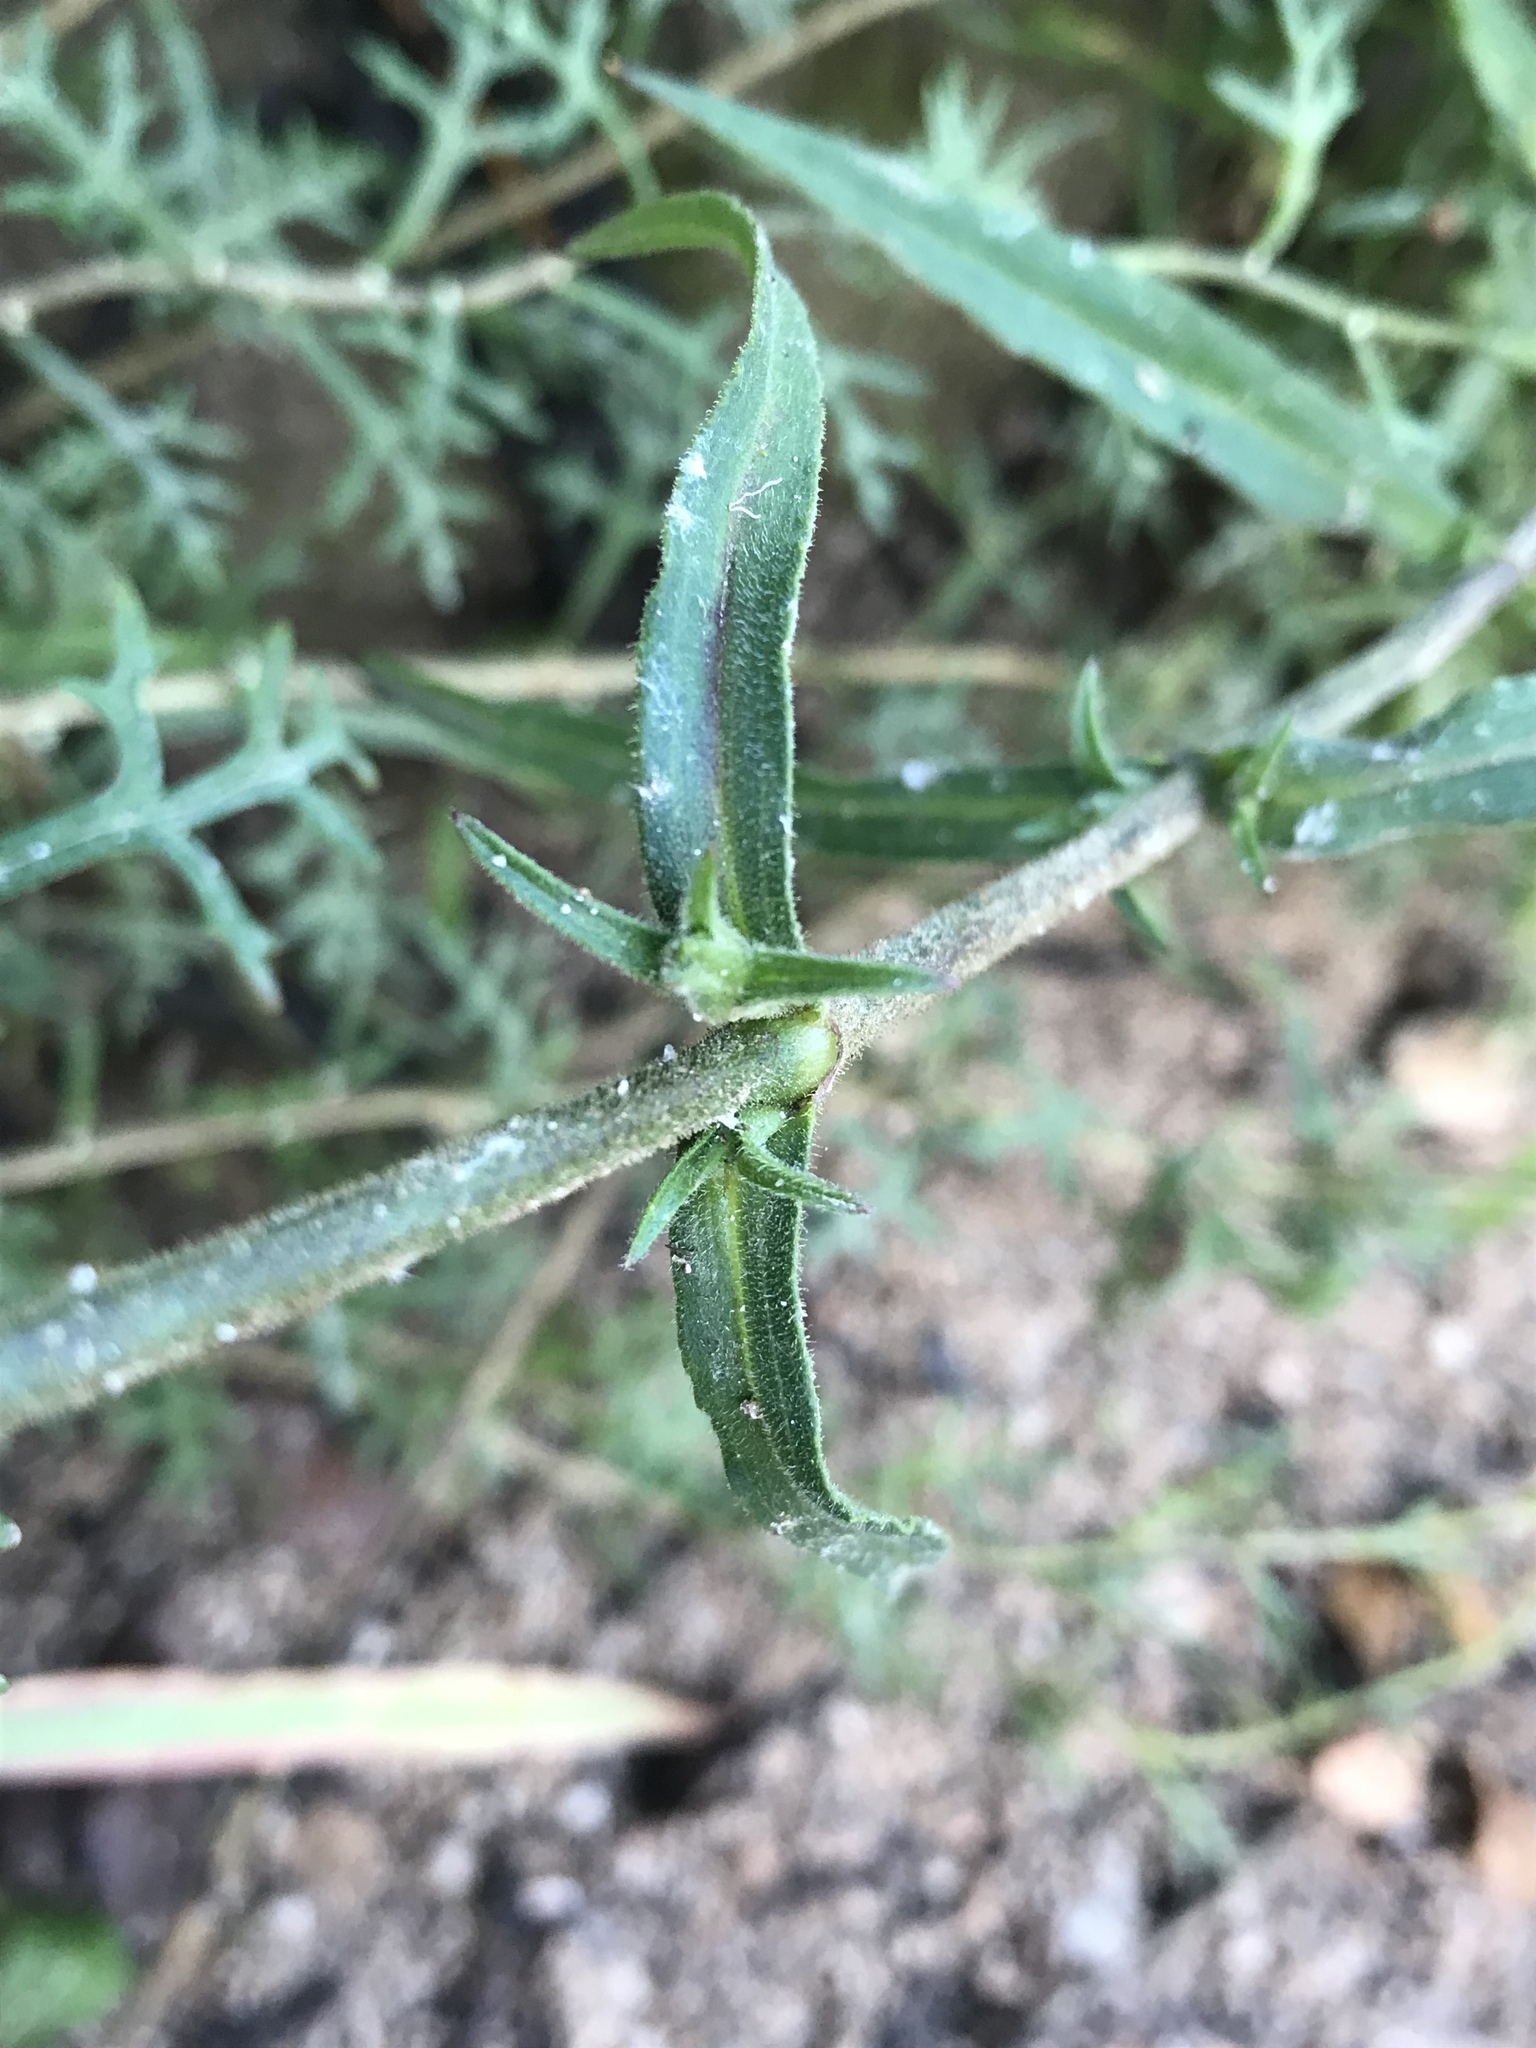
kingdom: Plantae
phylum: Tracheophyta
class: Magnoliopsida
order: Caryophyllales
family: Caryophyllaceae
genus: Silene
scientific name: Silene laciniata
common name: Indian-pink
